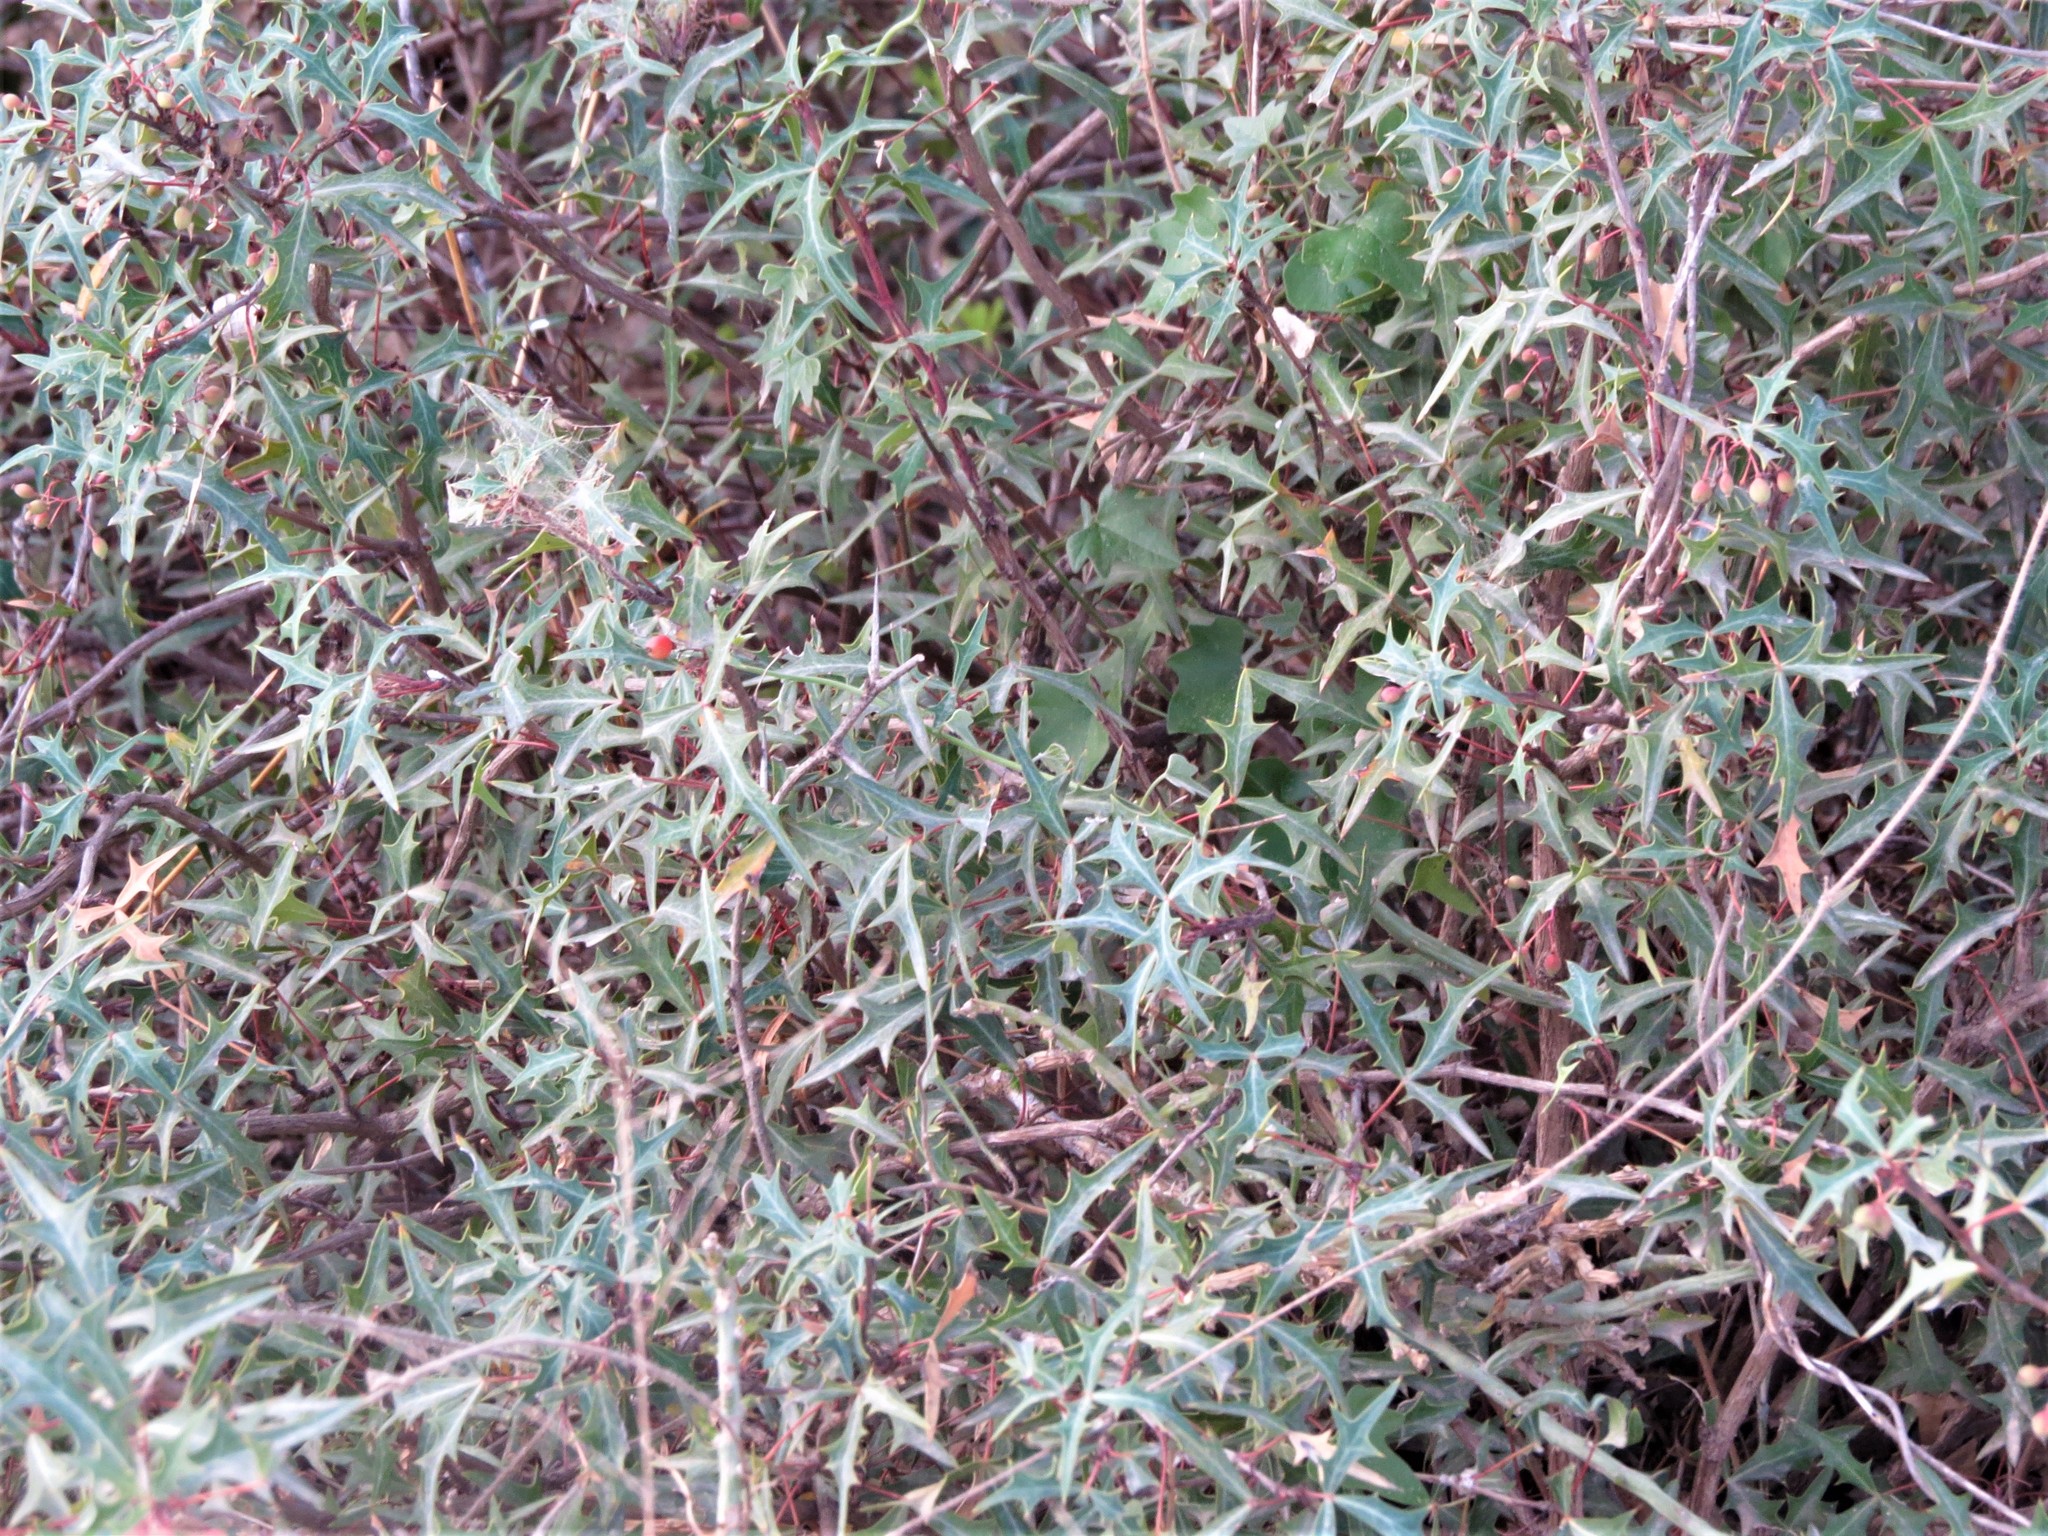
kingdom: Plantae
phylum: Tracheophyta
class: Magnoliopsida
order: Ranunculales
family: Berberidaceae
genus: Alloberberis
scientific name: Alloberberis trifoliolata
